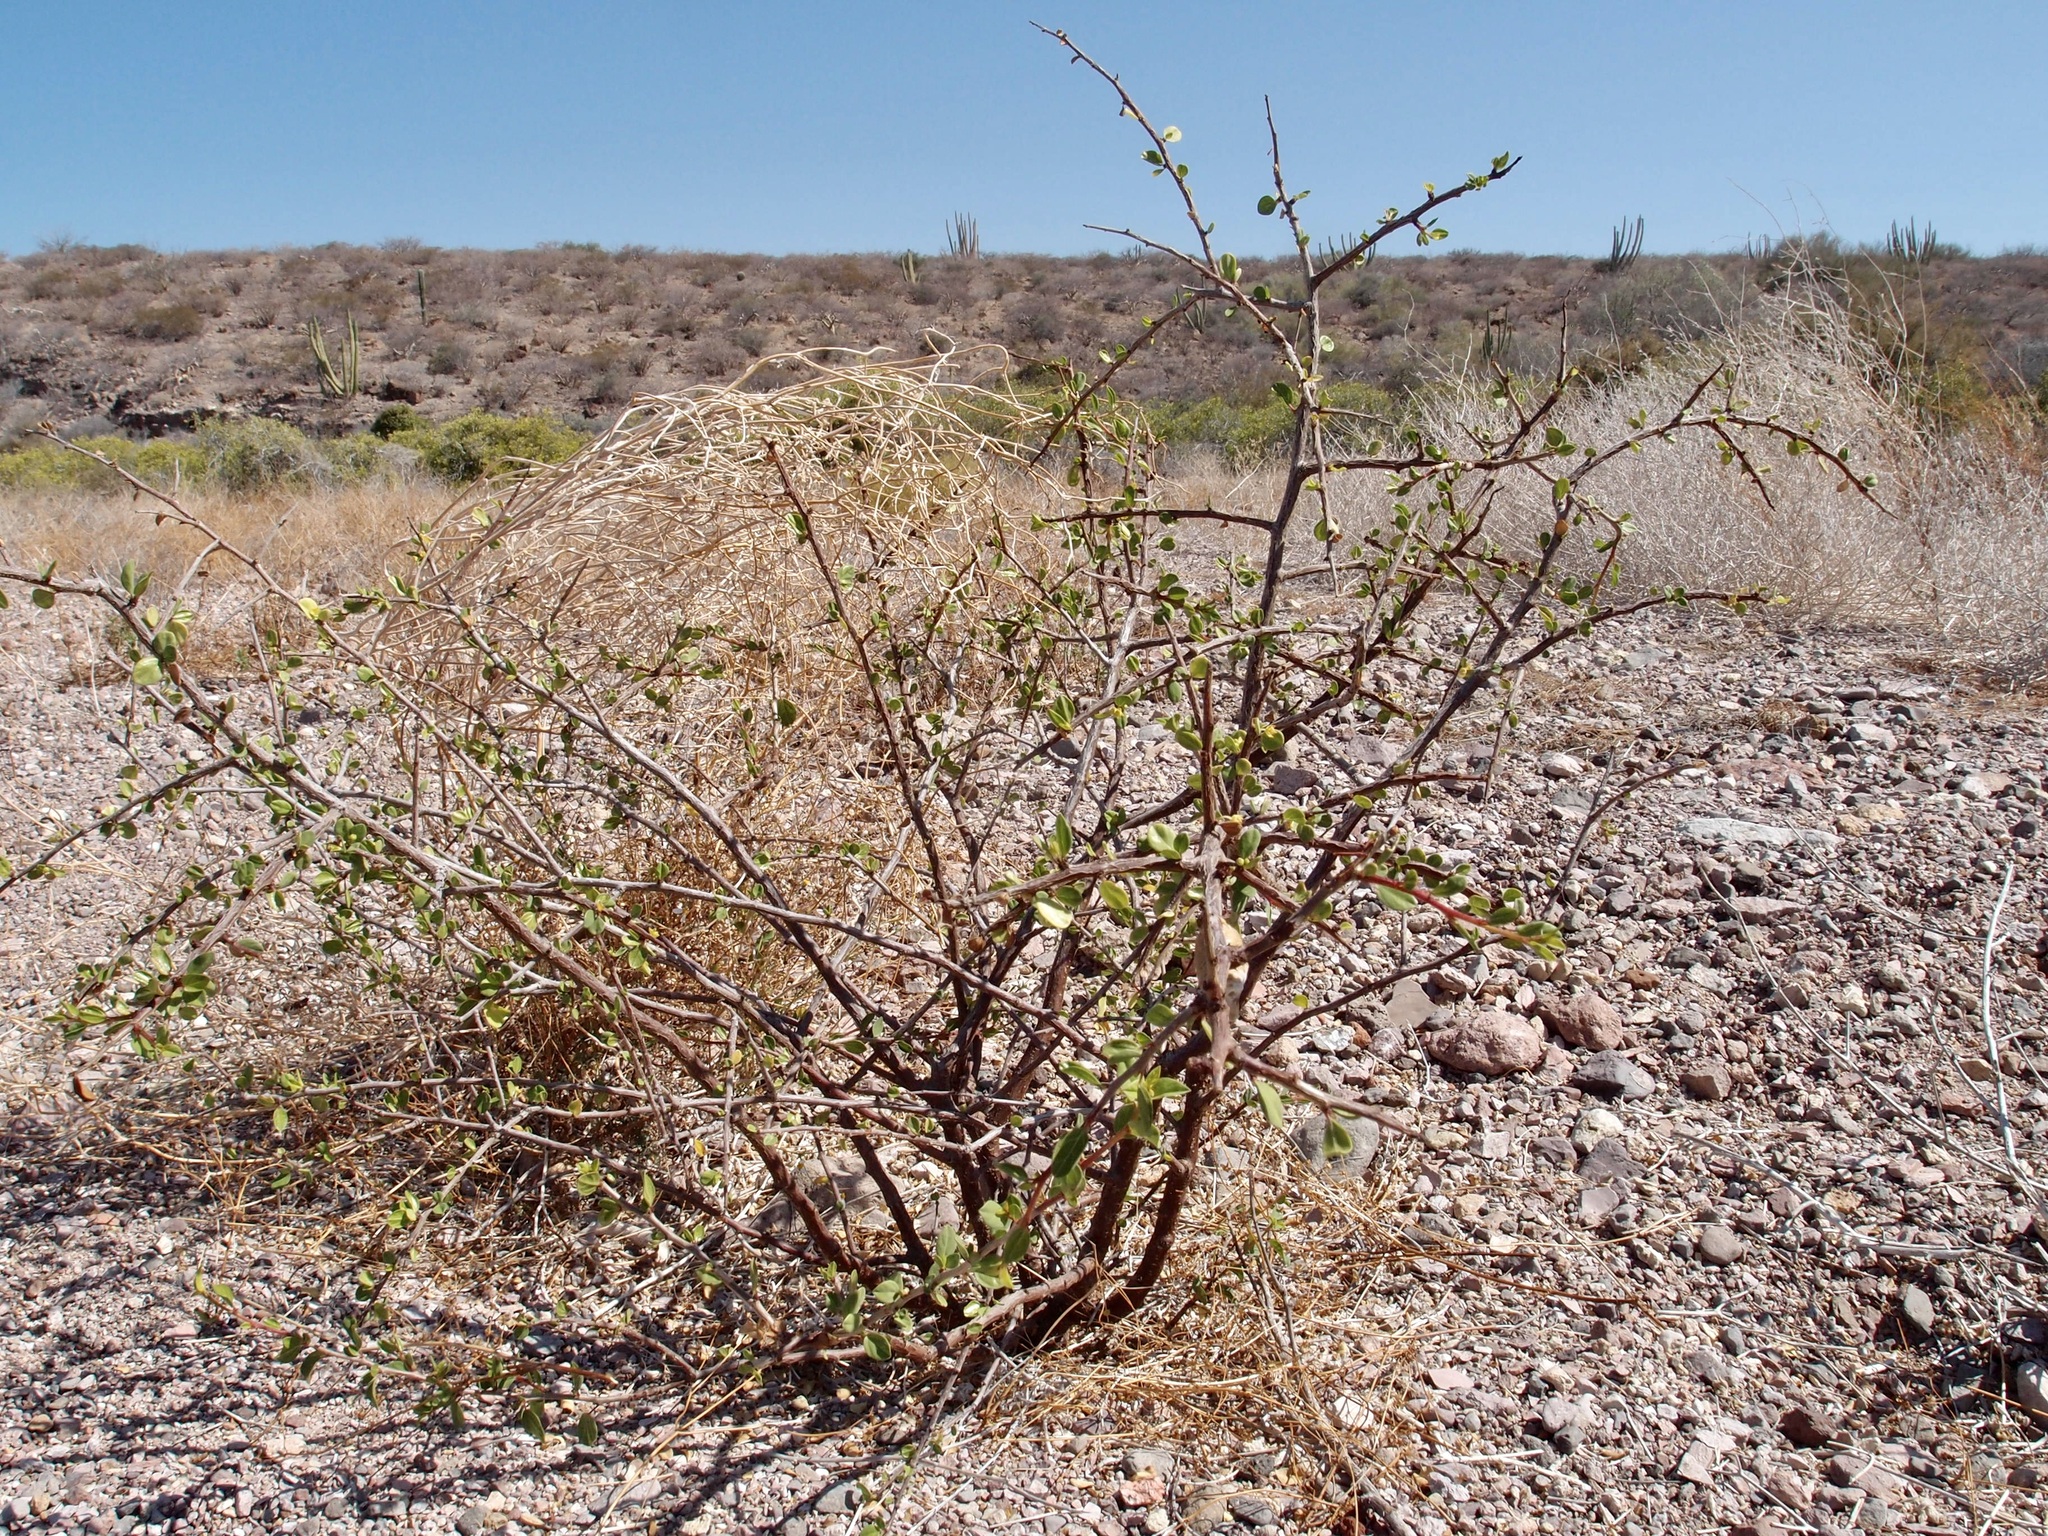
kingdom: Plantae
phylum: Tracheophyta
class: Magnoliopsida
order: Rosales
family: Rhamnaceae
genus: Colubrina
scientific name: Colubrina viridis
